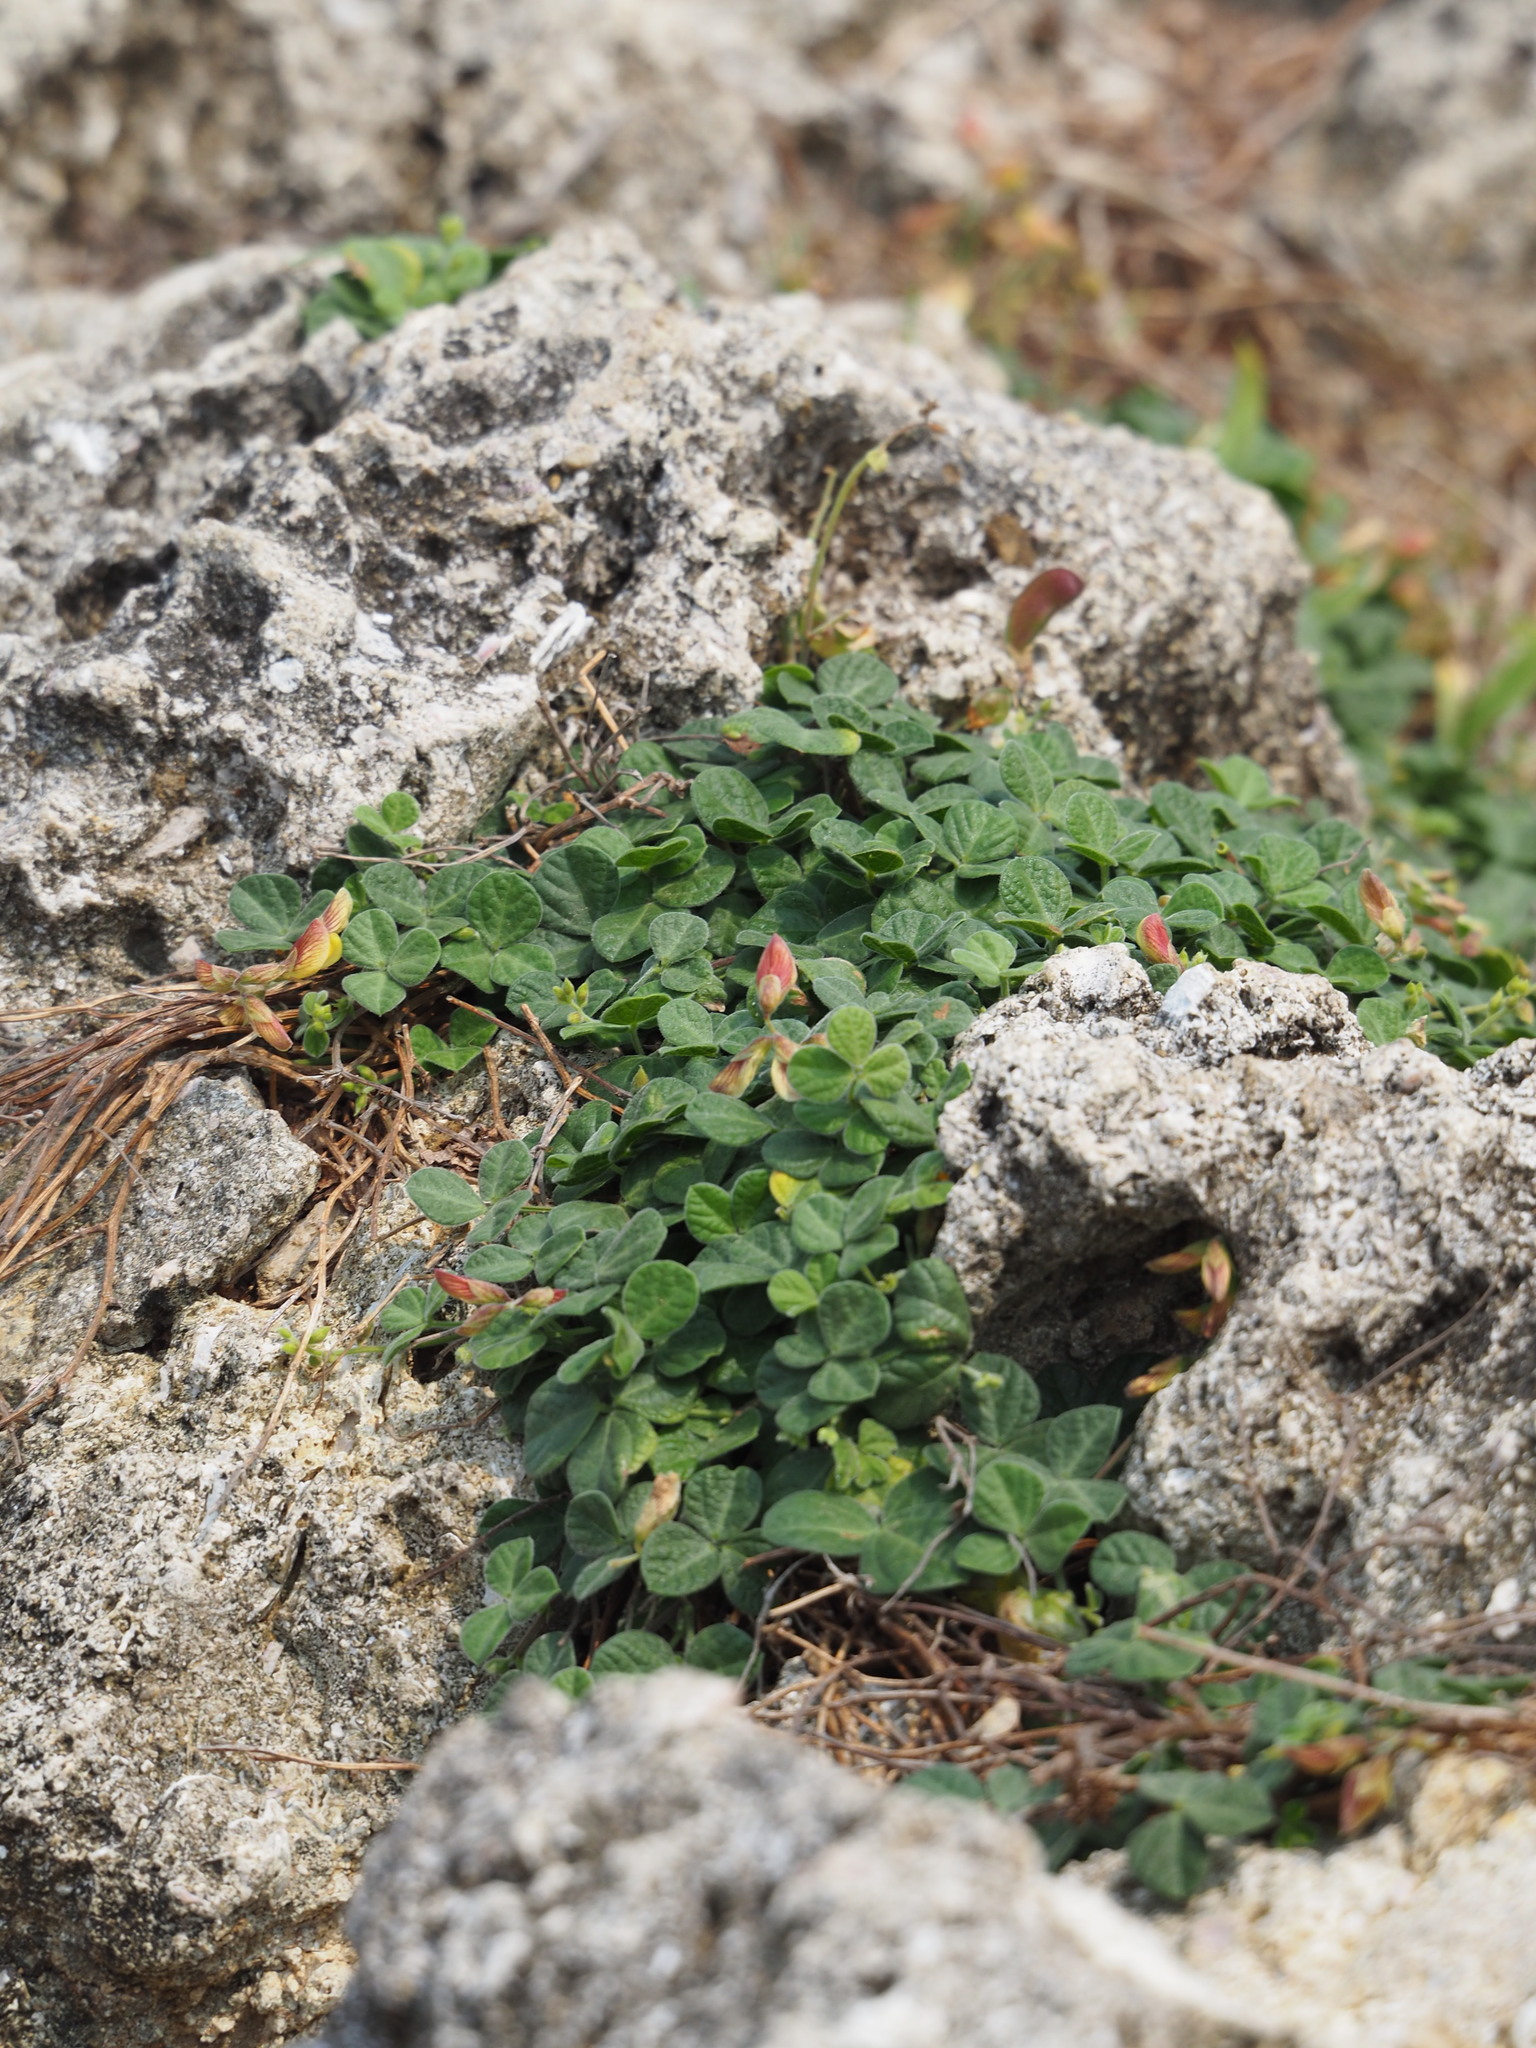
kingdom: Plantae
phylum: Tracheophyta
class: Magnoliopsida
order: Fabales
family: Fabaceae
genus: Rhynchosia
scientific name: Rhynchosia minima
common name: Least snoutbean
